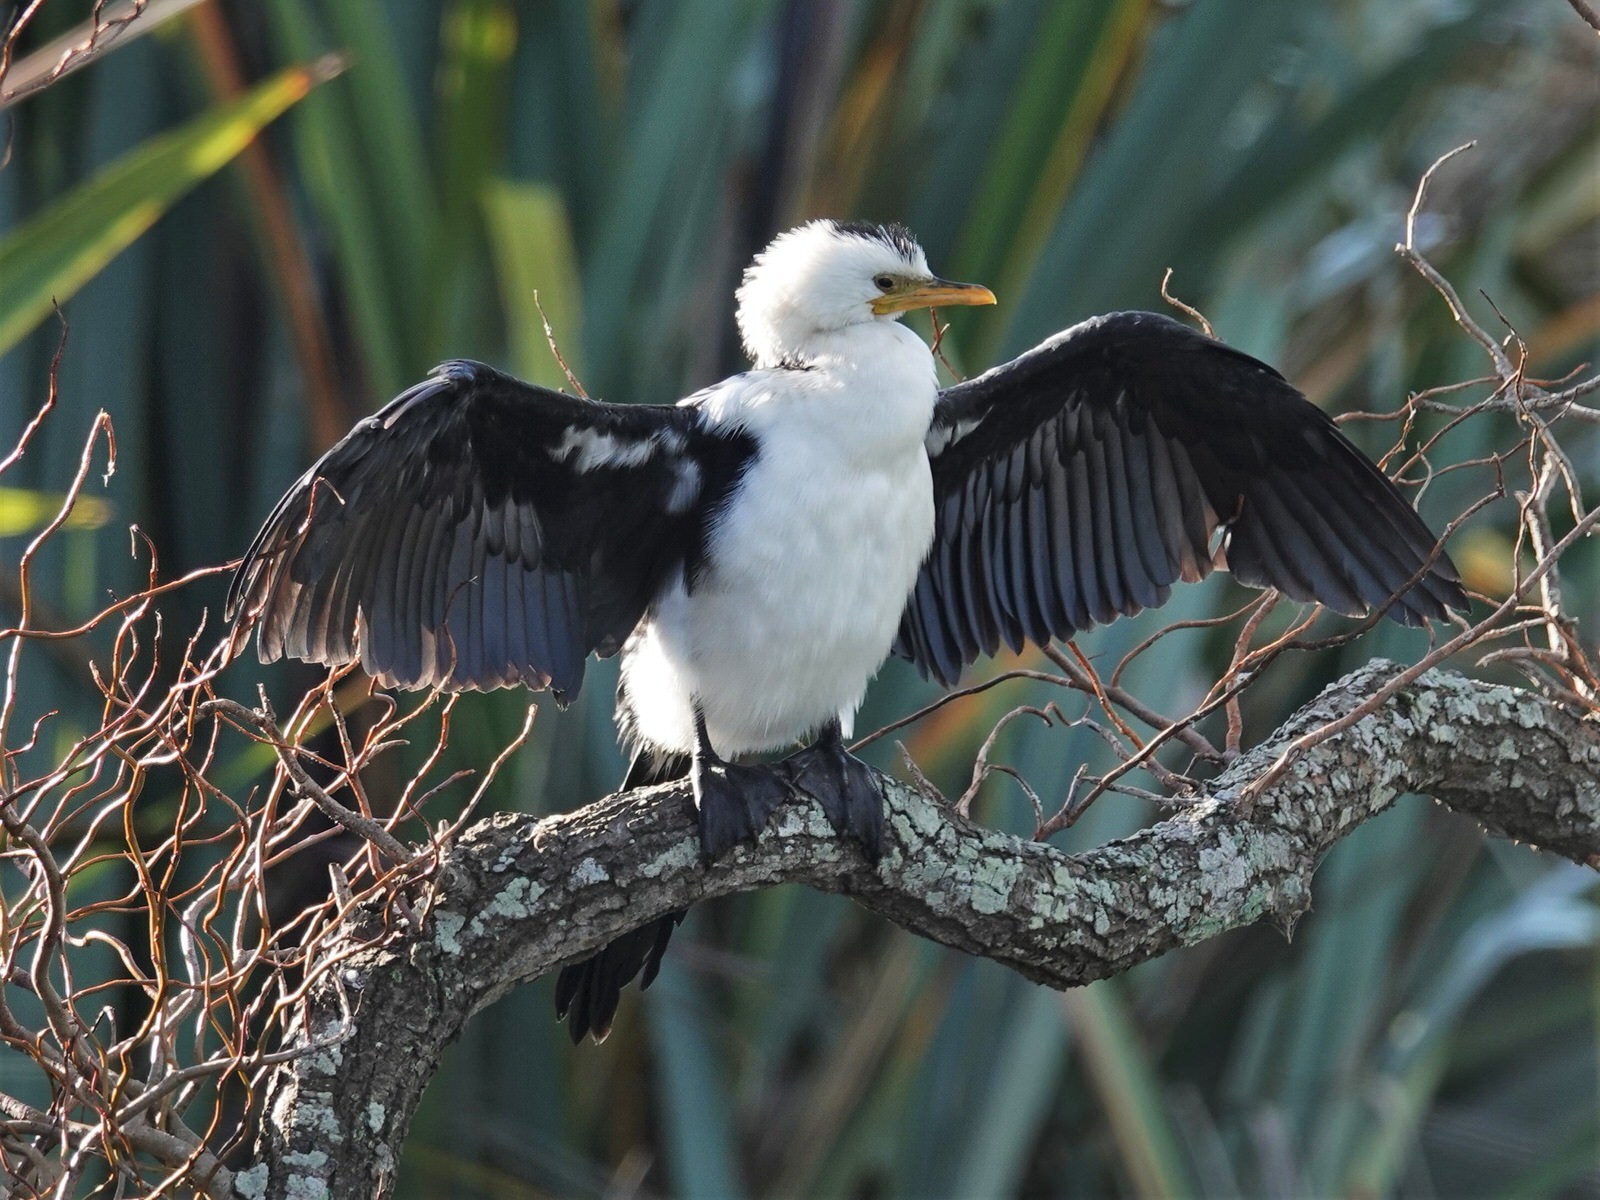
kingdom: Animalia
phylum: Chordata
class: Aves
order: Suliformes
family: Phalacrocoracidae
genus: Microcarbo
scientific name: Microcarbo melanoleucos
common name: Little pied cormorant
